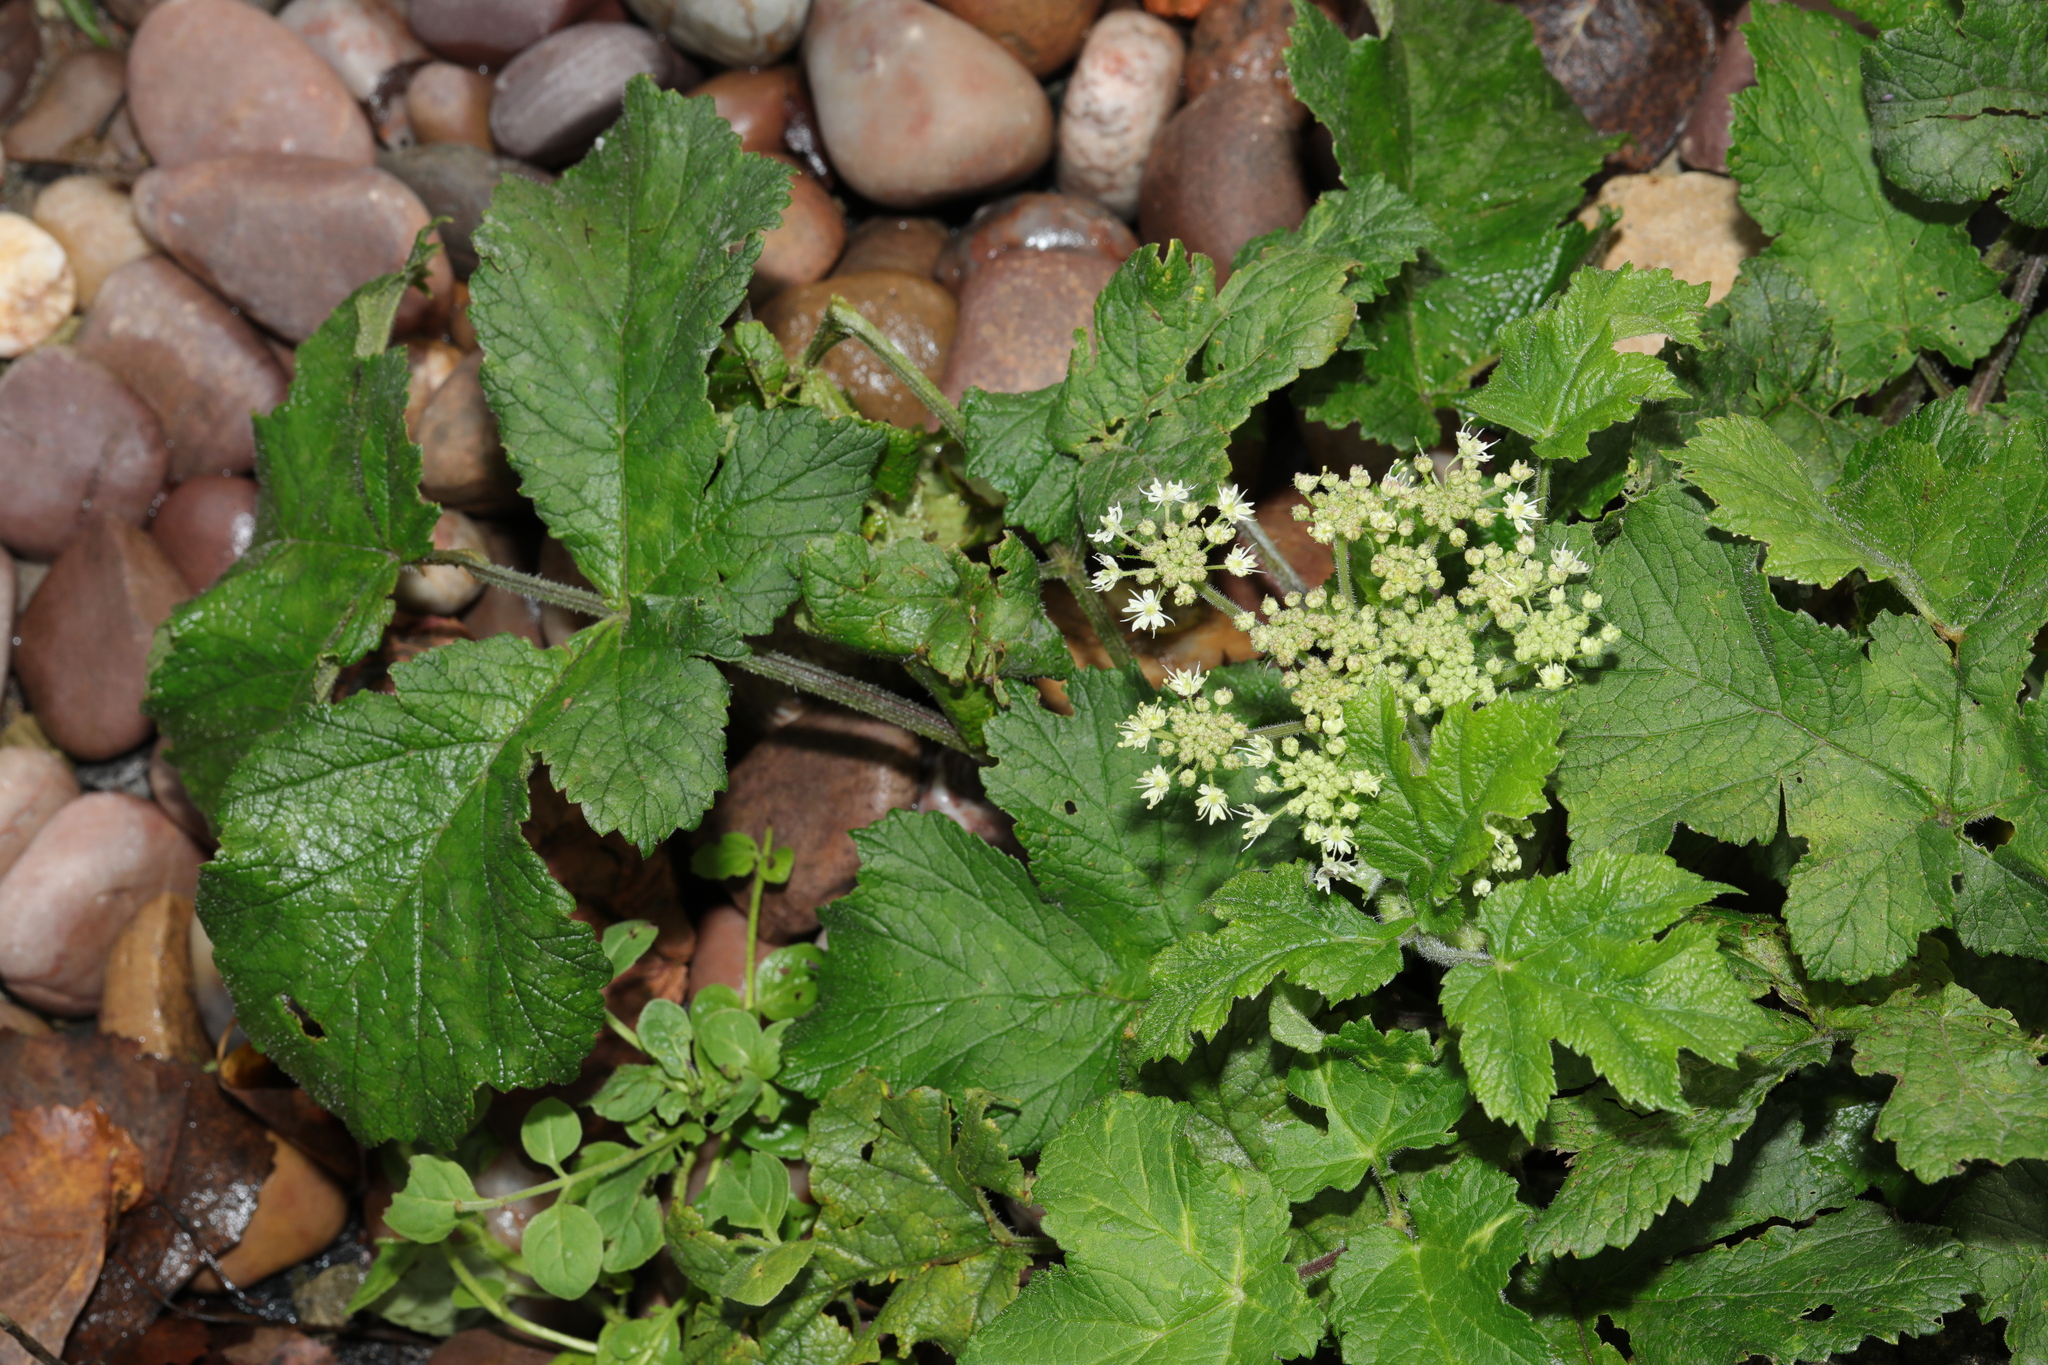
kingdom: Plantae
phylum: Tracheophyta
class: Magnoliopsida
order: Apiales
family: Apiaceae
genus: Heracleum
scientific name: Heracleum sphondylium
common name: Hogweed
